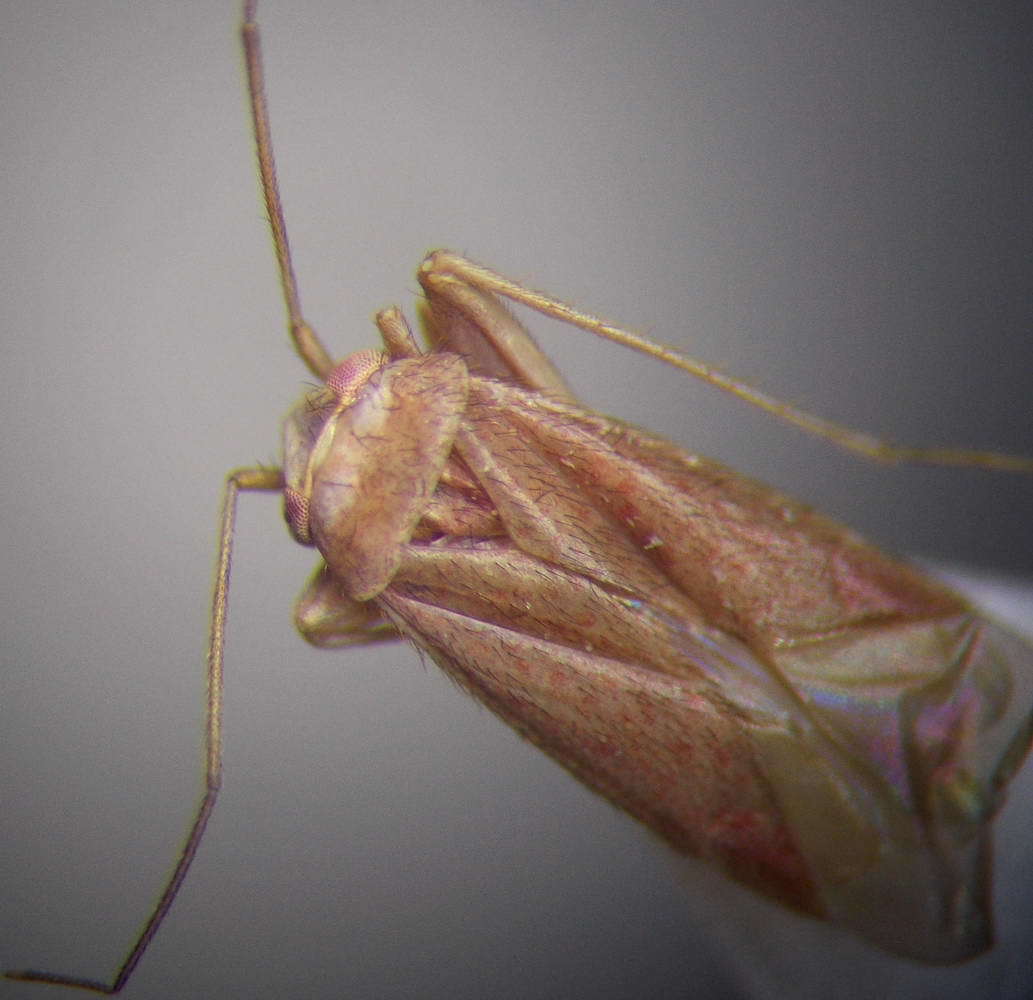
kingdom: Animalia
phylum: Arthropoda
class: Insecta
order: Hemiptera
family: Miridae
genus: Orthotylus
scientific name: Orthotylus rubidus
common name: Plant bug
